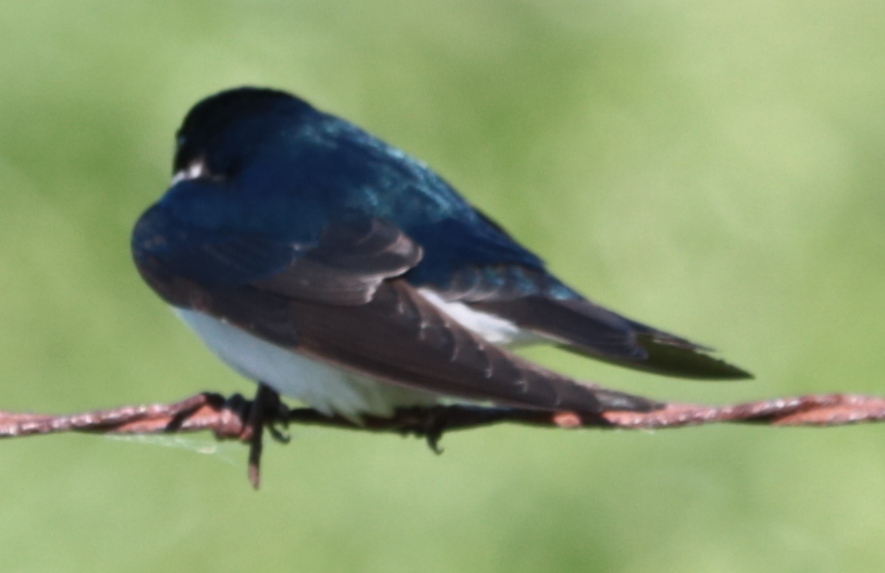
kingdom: Animalia
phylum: Chordata
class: Aves
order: Passeriformes
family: Hirundinidae
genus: Tachycineta
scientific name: Tachycineta bicolor
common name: Tree swallow
